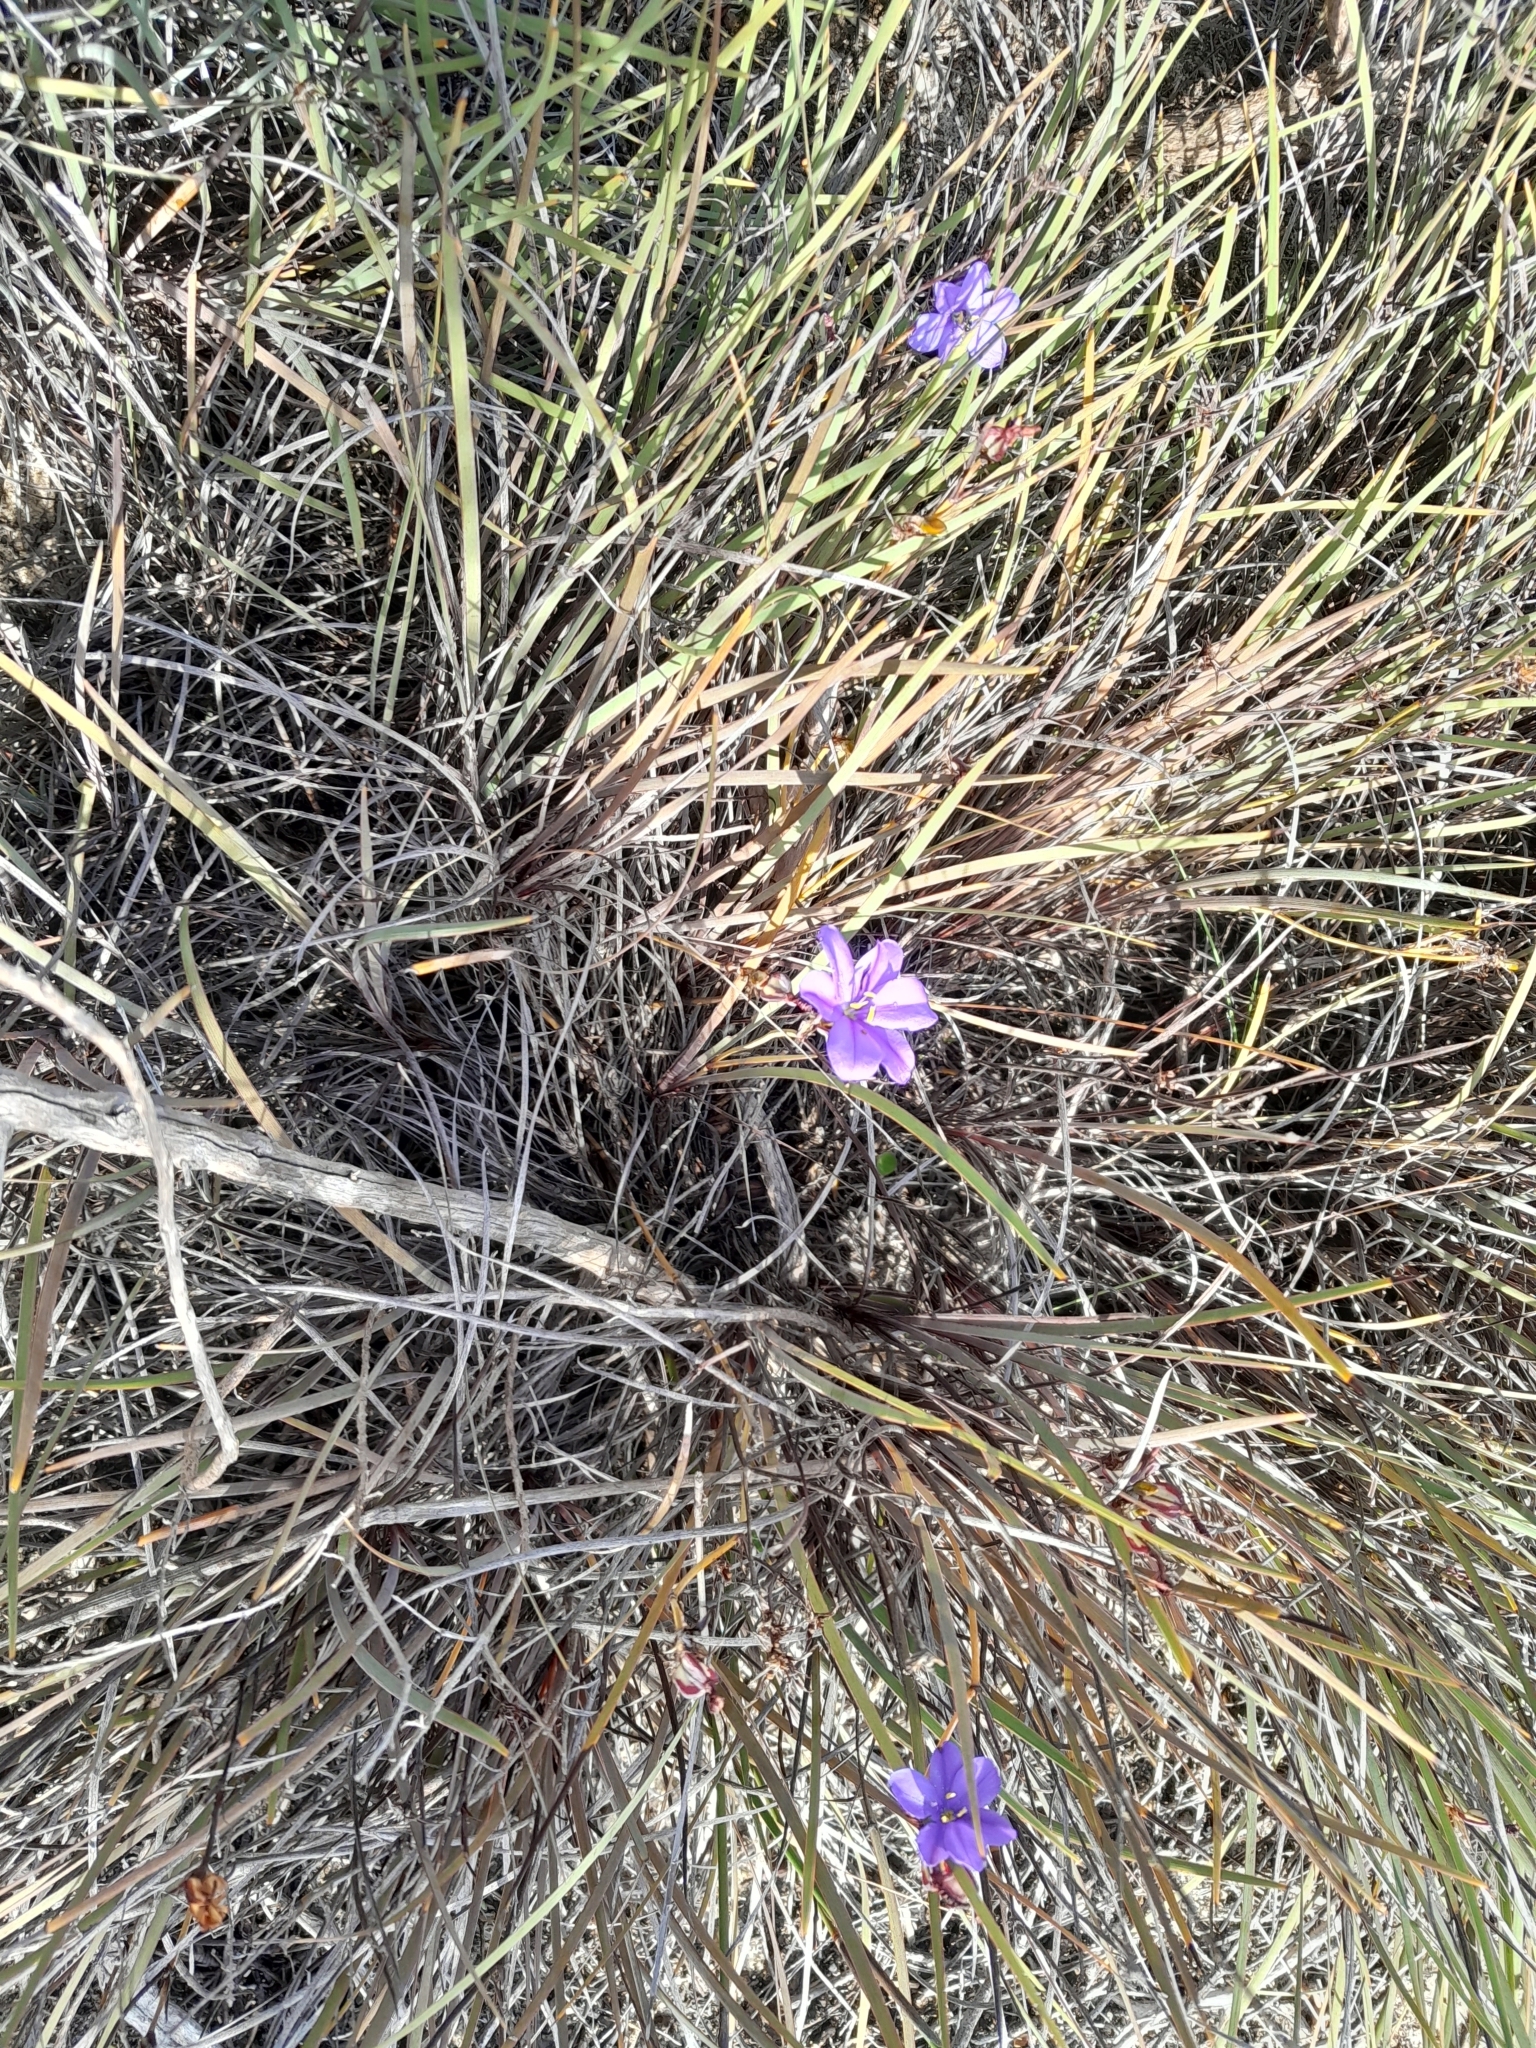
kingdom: Plantae
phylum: Tracheophyta
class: Liliopsida
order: Asparagales
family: Iridaceae
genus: Aristea
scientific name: Aristea dichotoma
